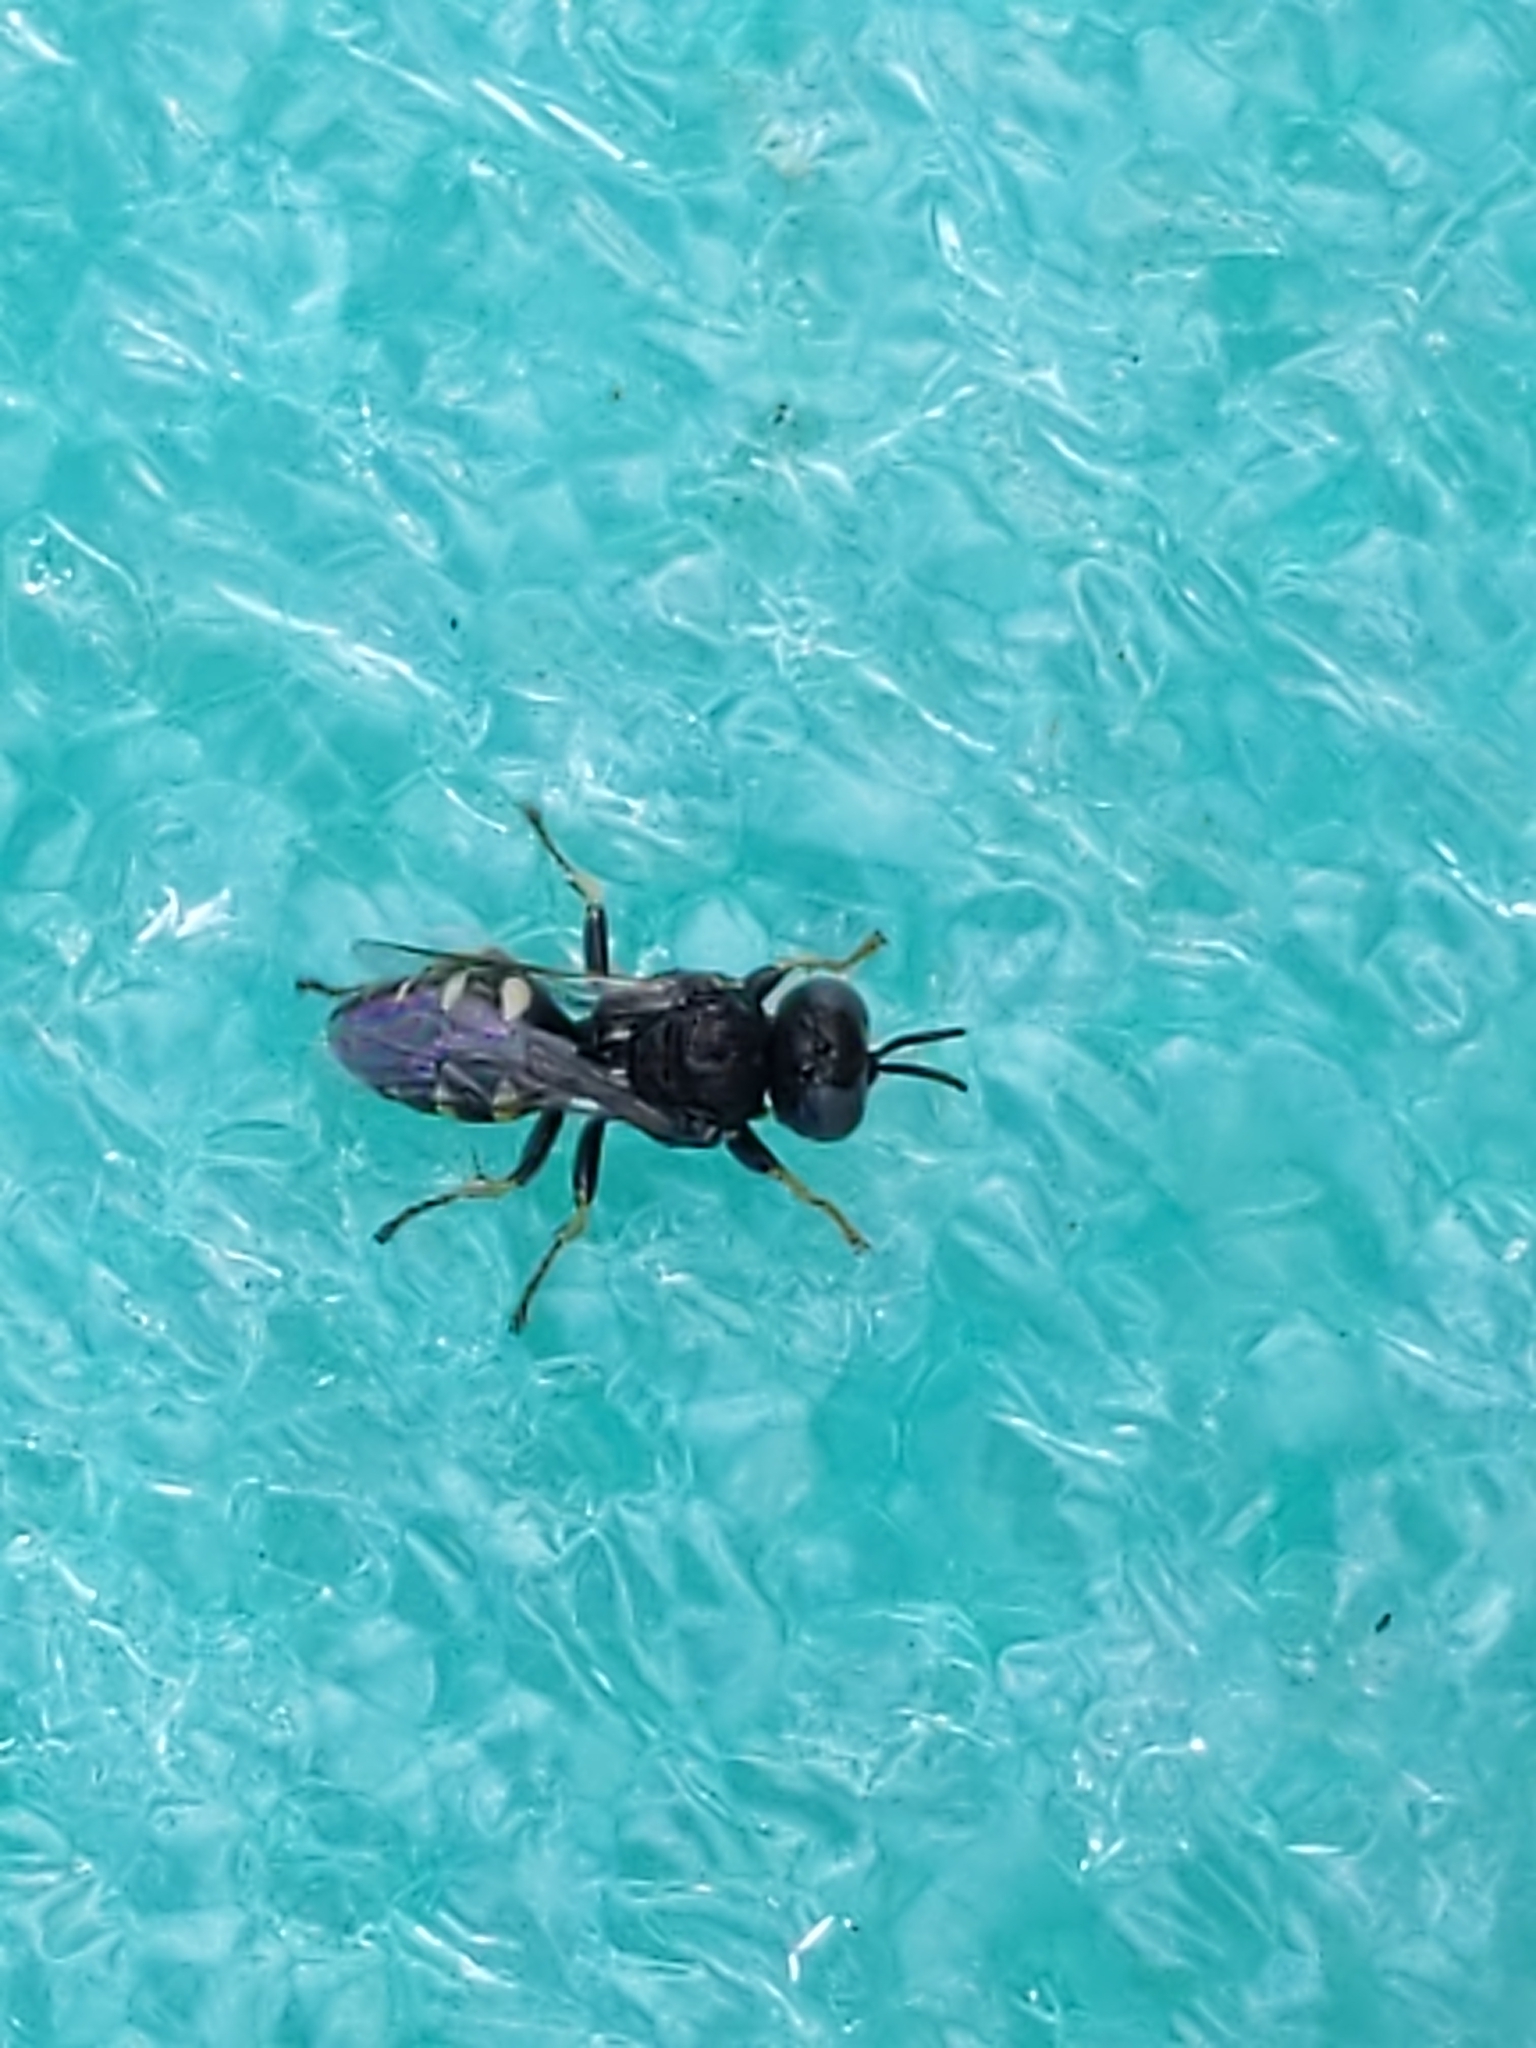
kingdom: Animalia
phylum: Arthropoda
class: Insecta
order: Hymenoptera
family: Crabronidae
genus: Oxybelus
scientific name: Oxybelus
